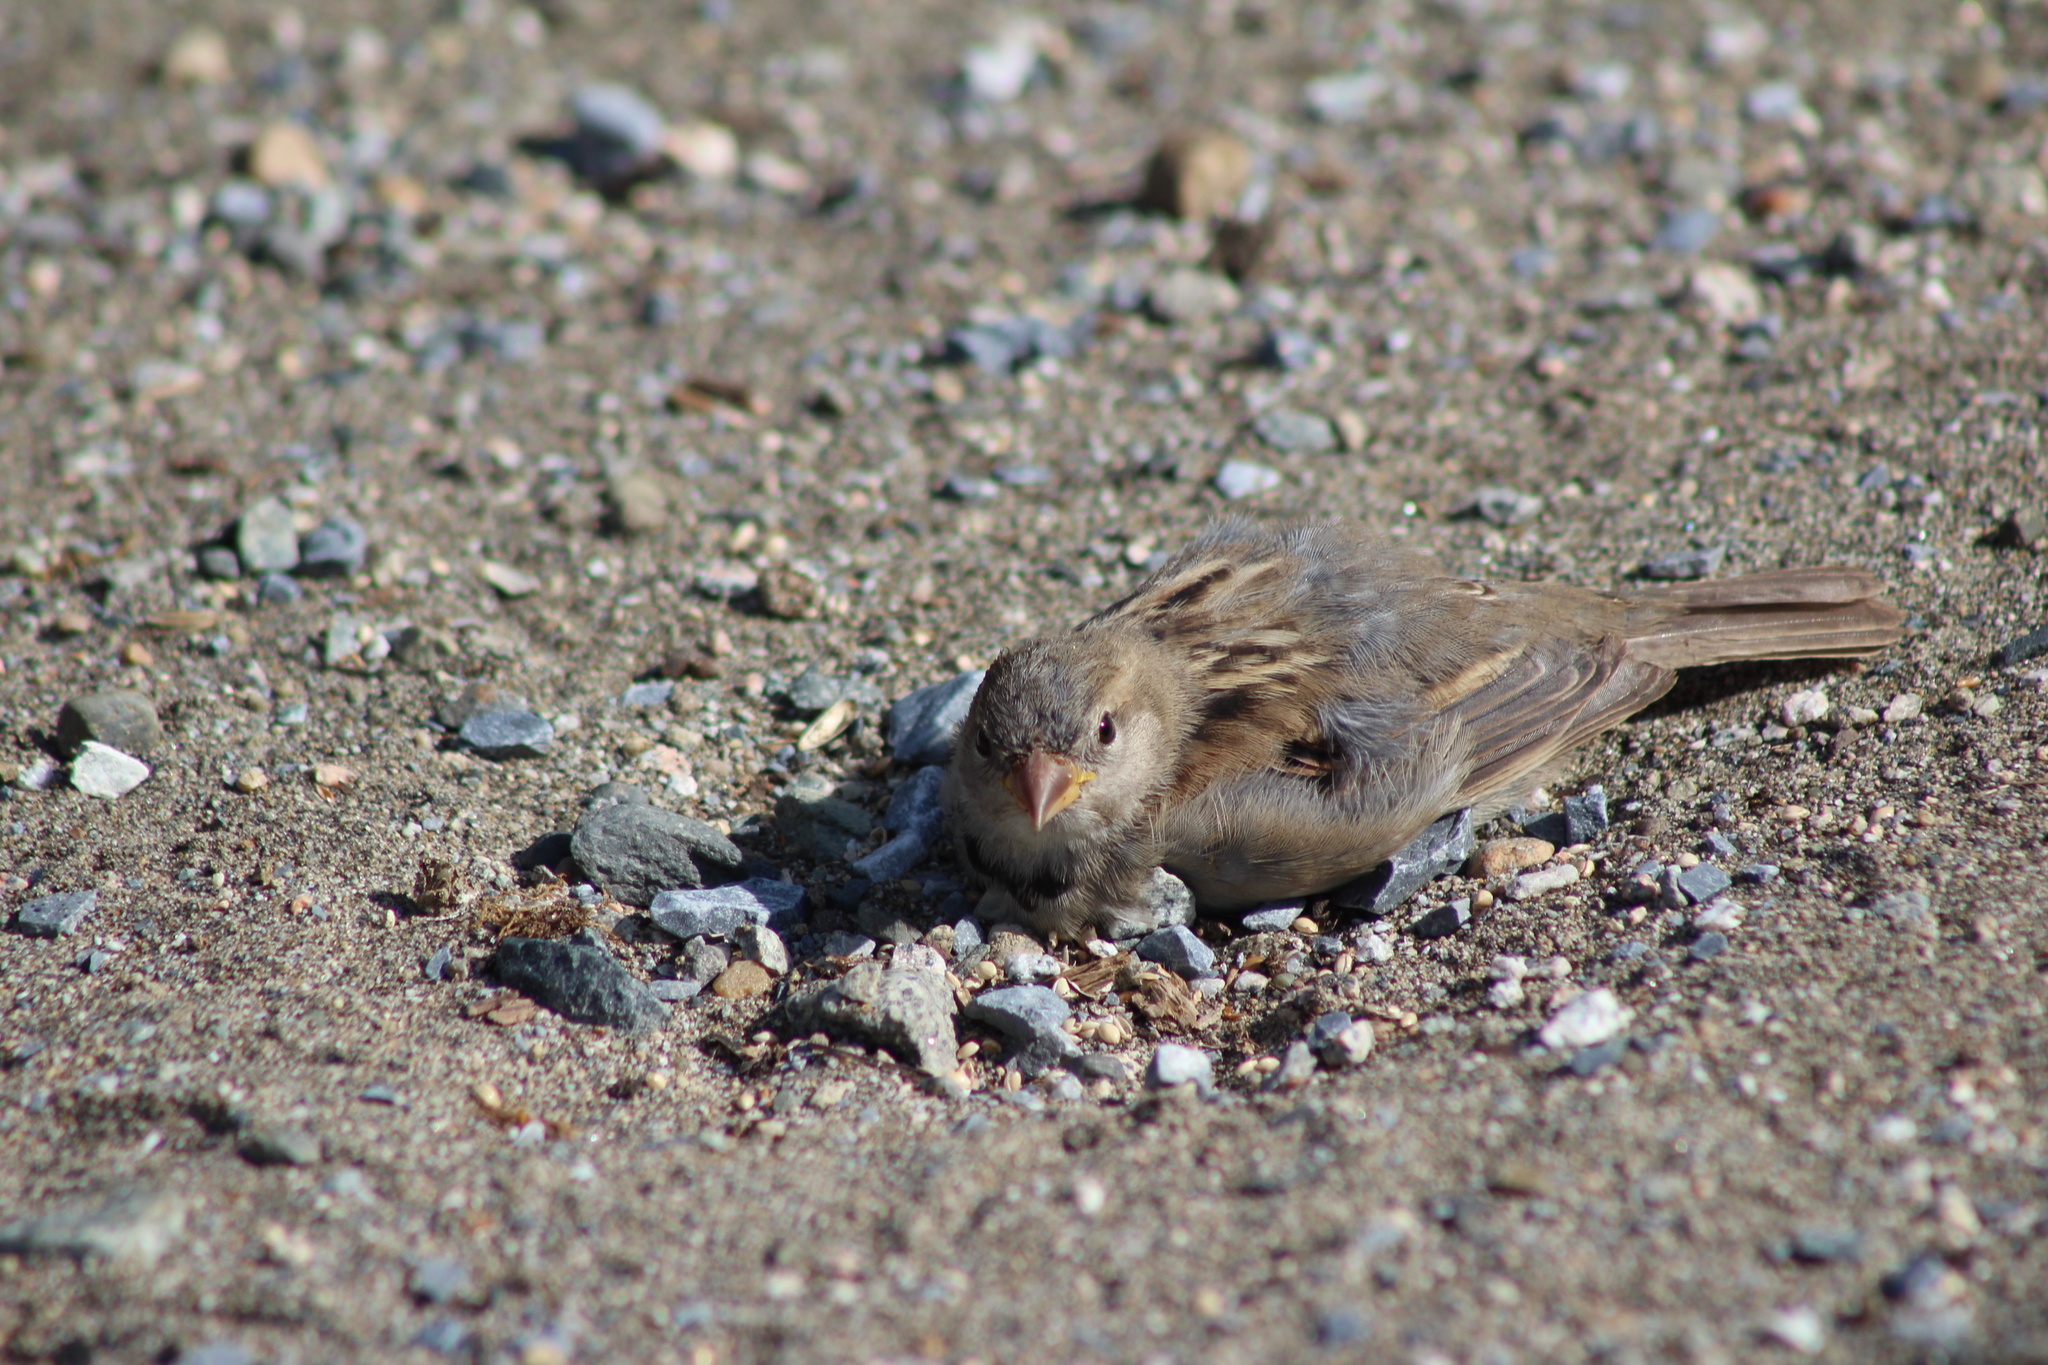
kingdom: Animalia
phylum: Chordata
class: Aves
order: Passeriformes
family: Passeridae
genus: Passer
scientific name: Passer domesticus
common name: House sparrow
